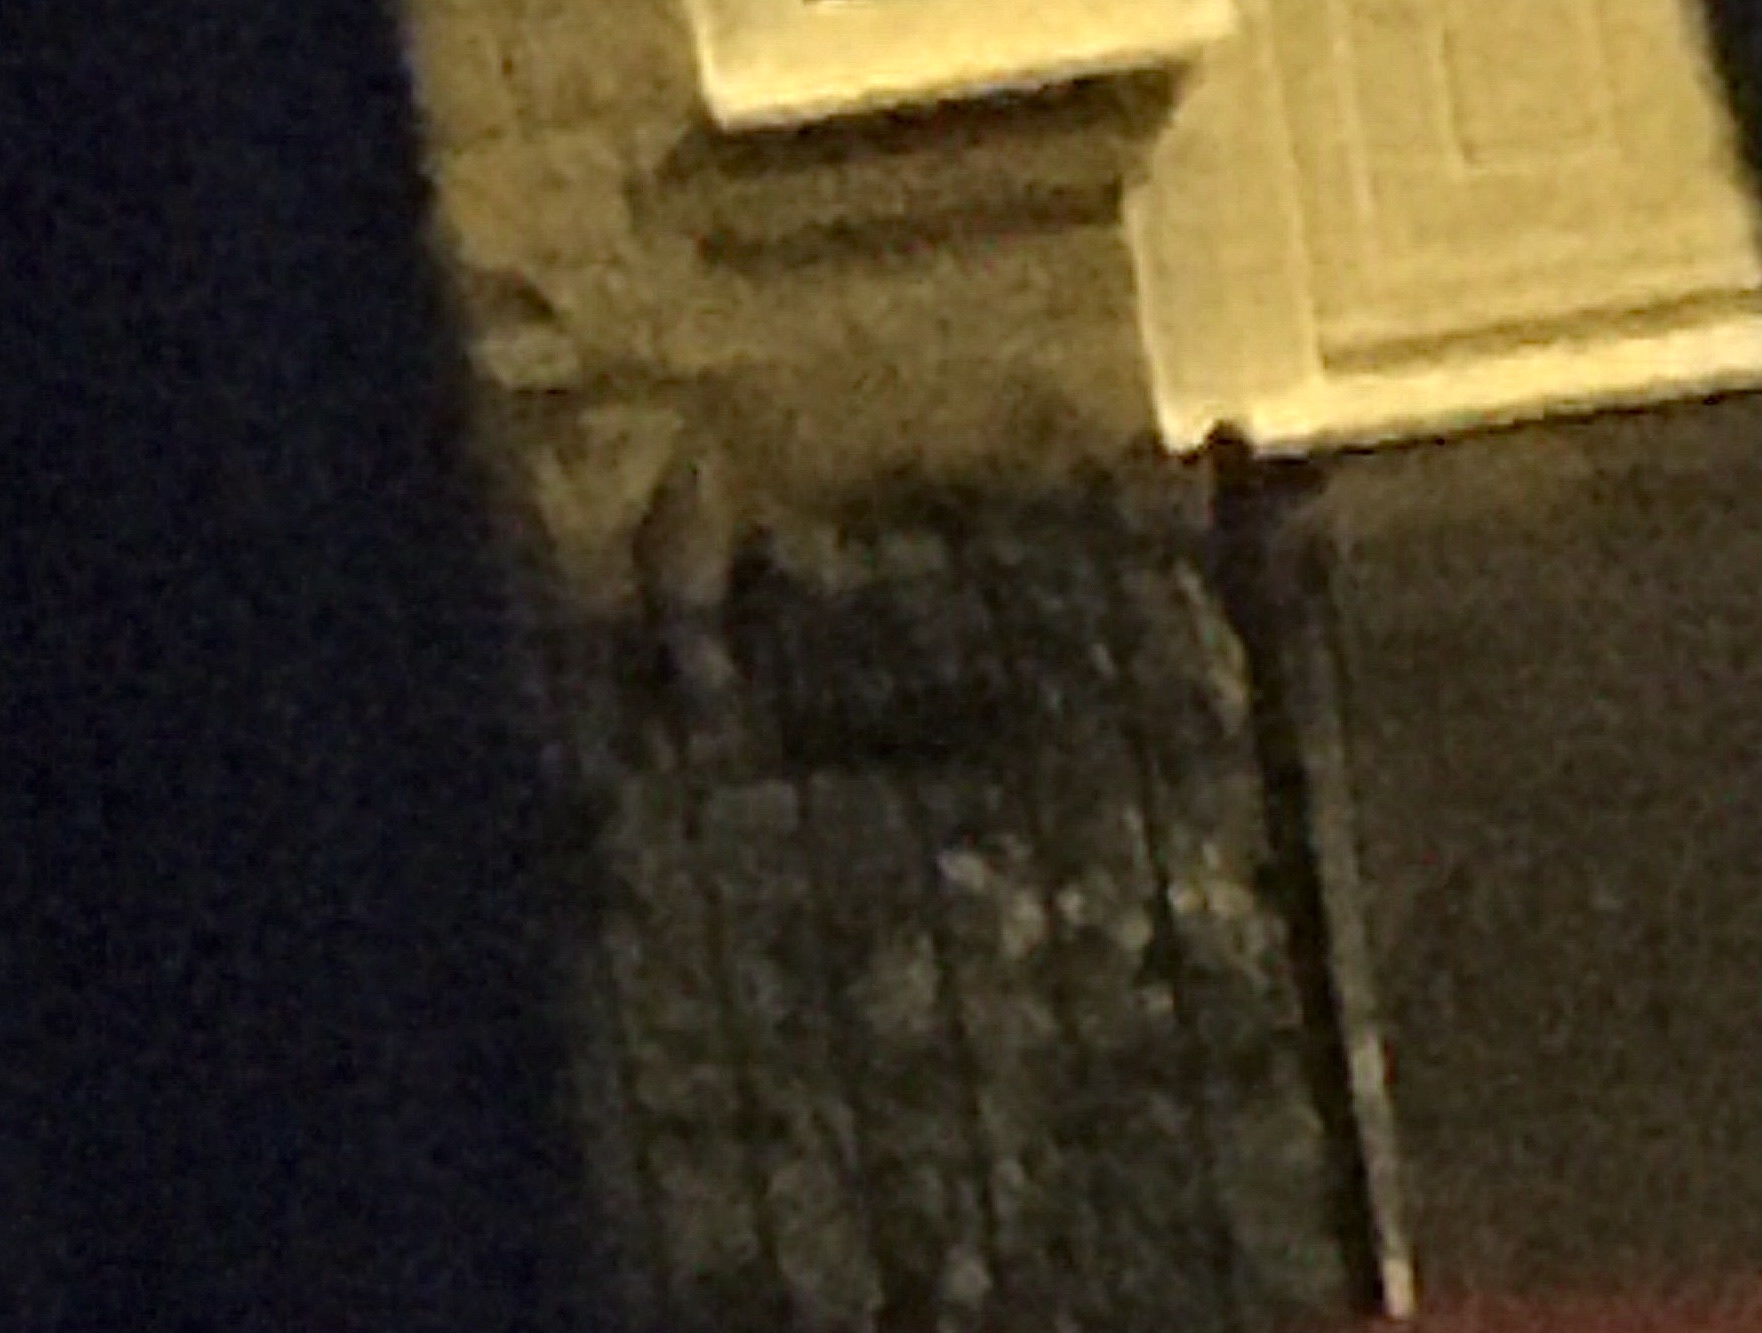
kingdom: Animalia
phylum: Chordata
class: Mammalia
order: Carnivora
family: Canidae
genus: Vulpes
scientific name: Vulpes vulpes
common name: Red fox
